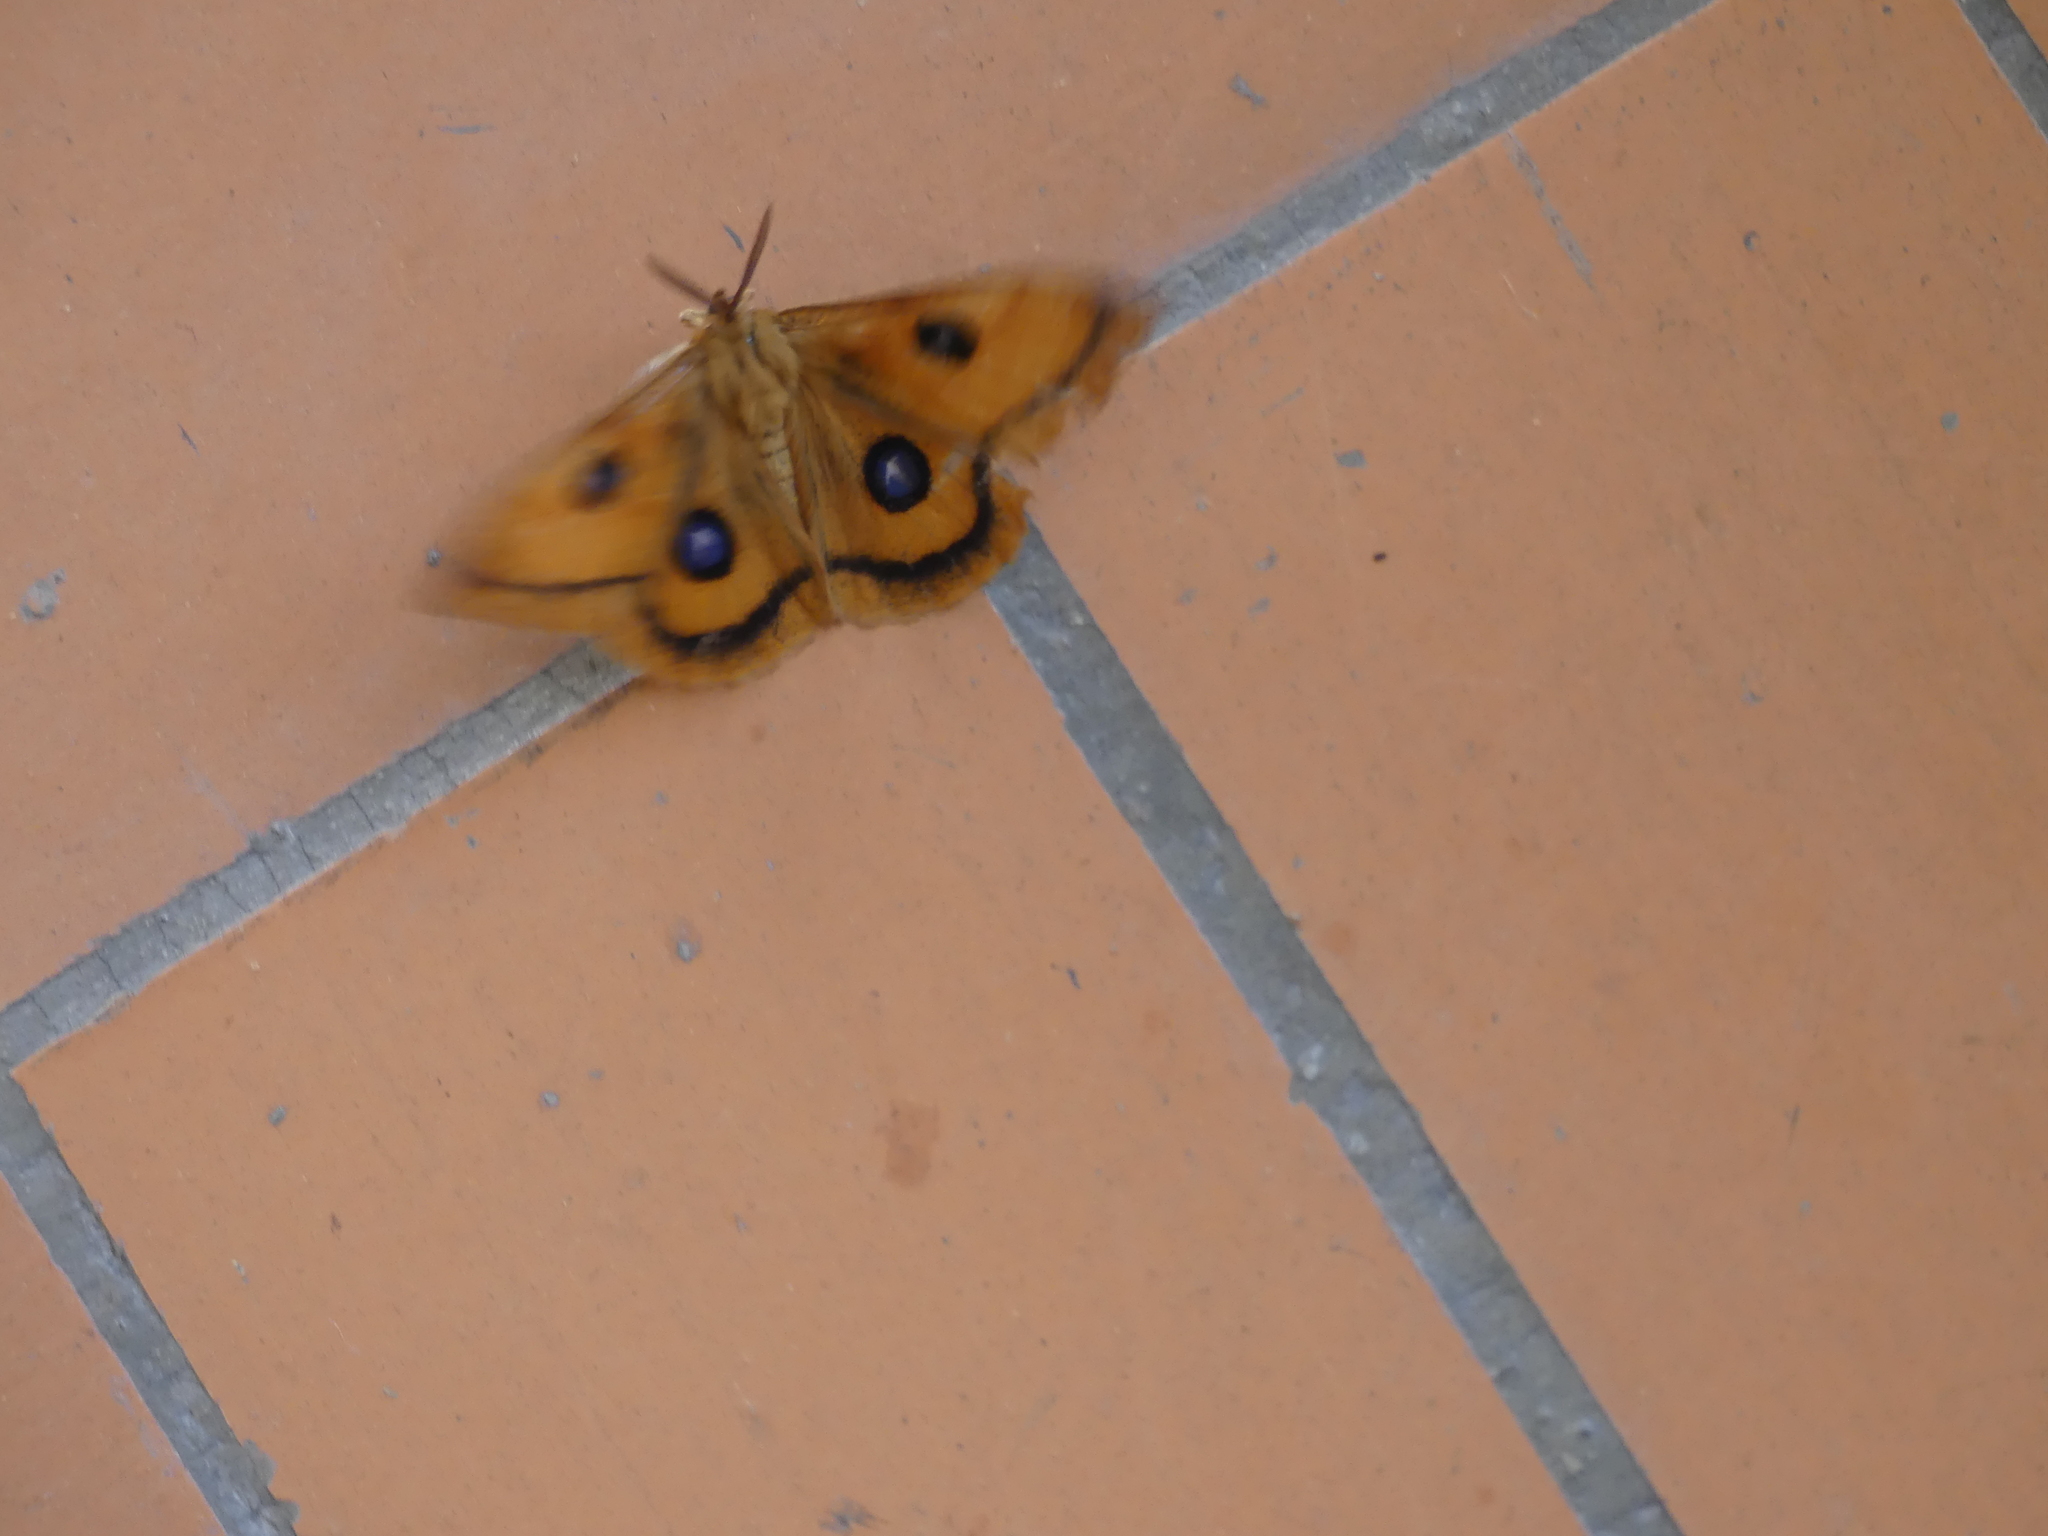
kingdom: Animalia
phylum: Arthropoda
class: Insecta
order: Lepidoptera
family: Saturniidae
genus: Aglia
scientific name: Aglia tau
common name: Tau emperor
